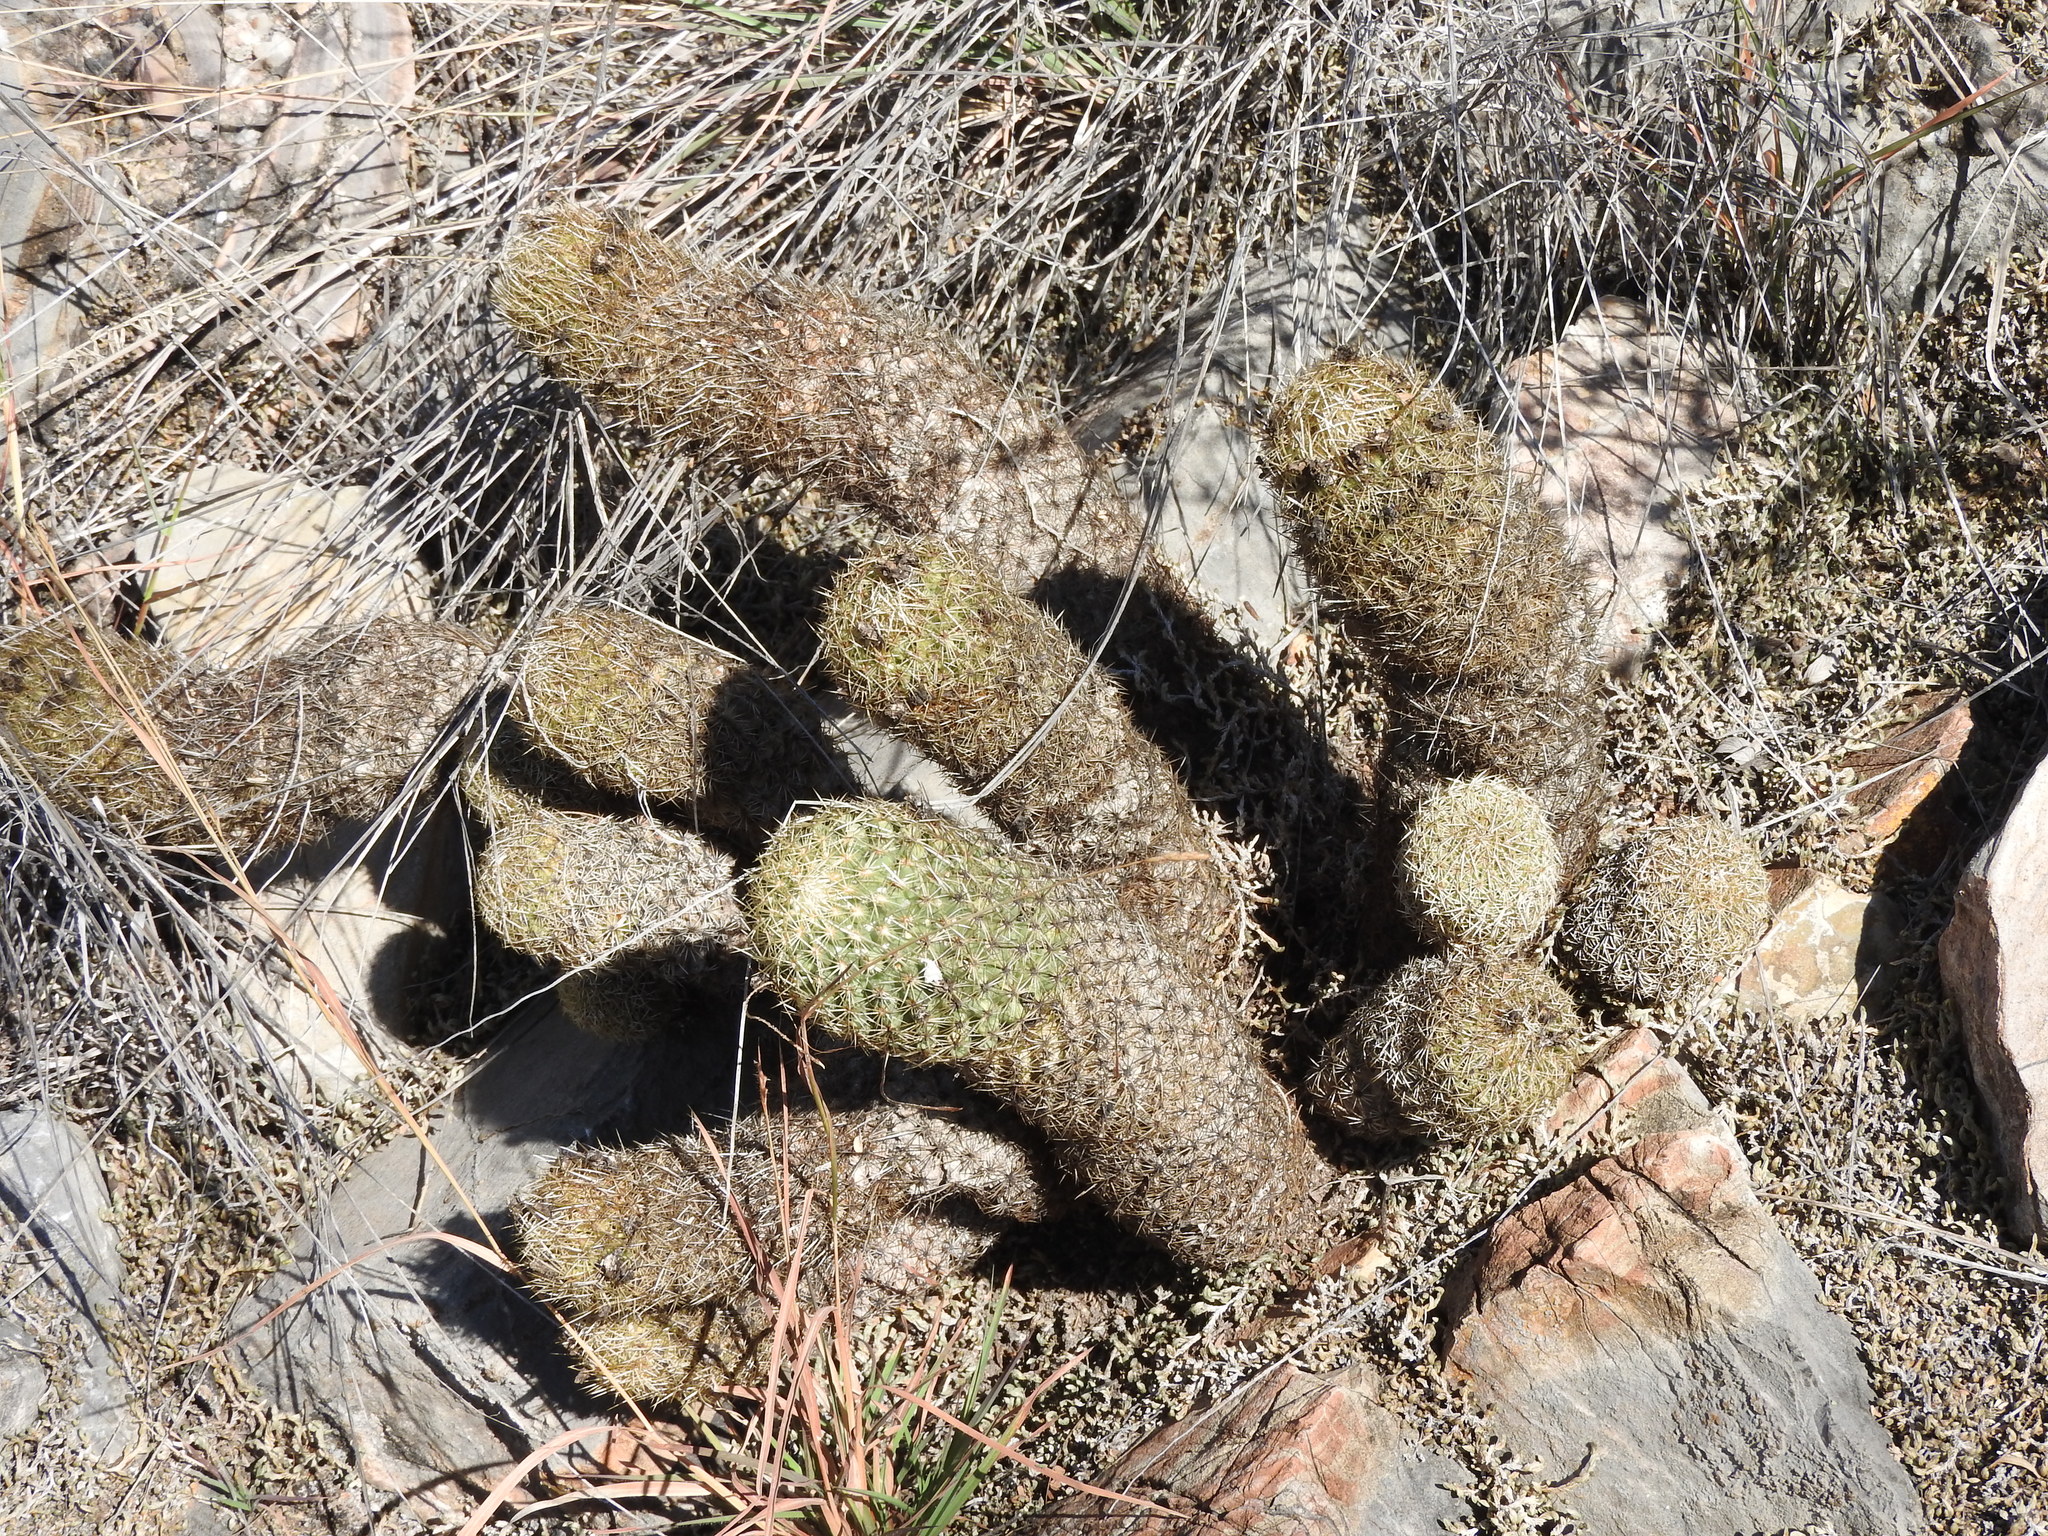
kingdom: Plantae
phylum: Tracheophyta
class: Magnoliopsida
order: Caryophyllales
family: Cactaceae
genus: Coryphantha
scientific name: Coryphantha erecta
